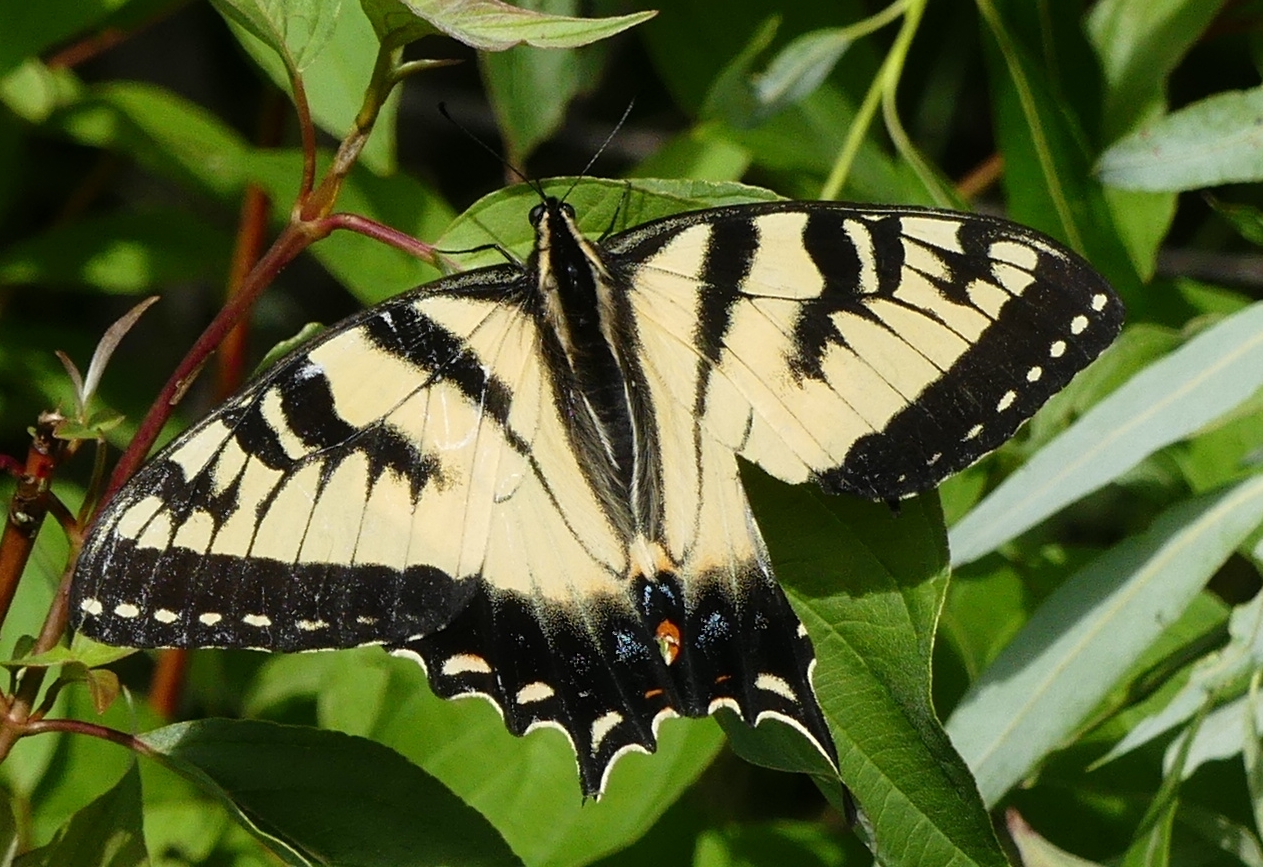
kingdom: Animalia
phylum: Arthropoda
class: Insecta
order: Lepidoptera
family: Papilionidae
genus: Papilio
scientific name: Papilio
